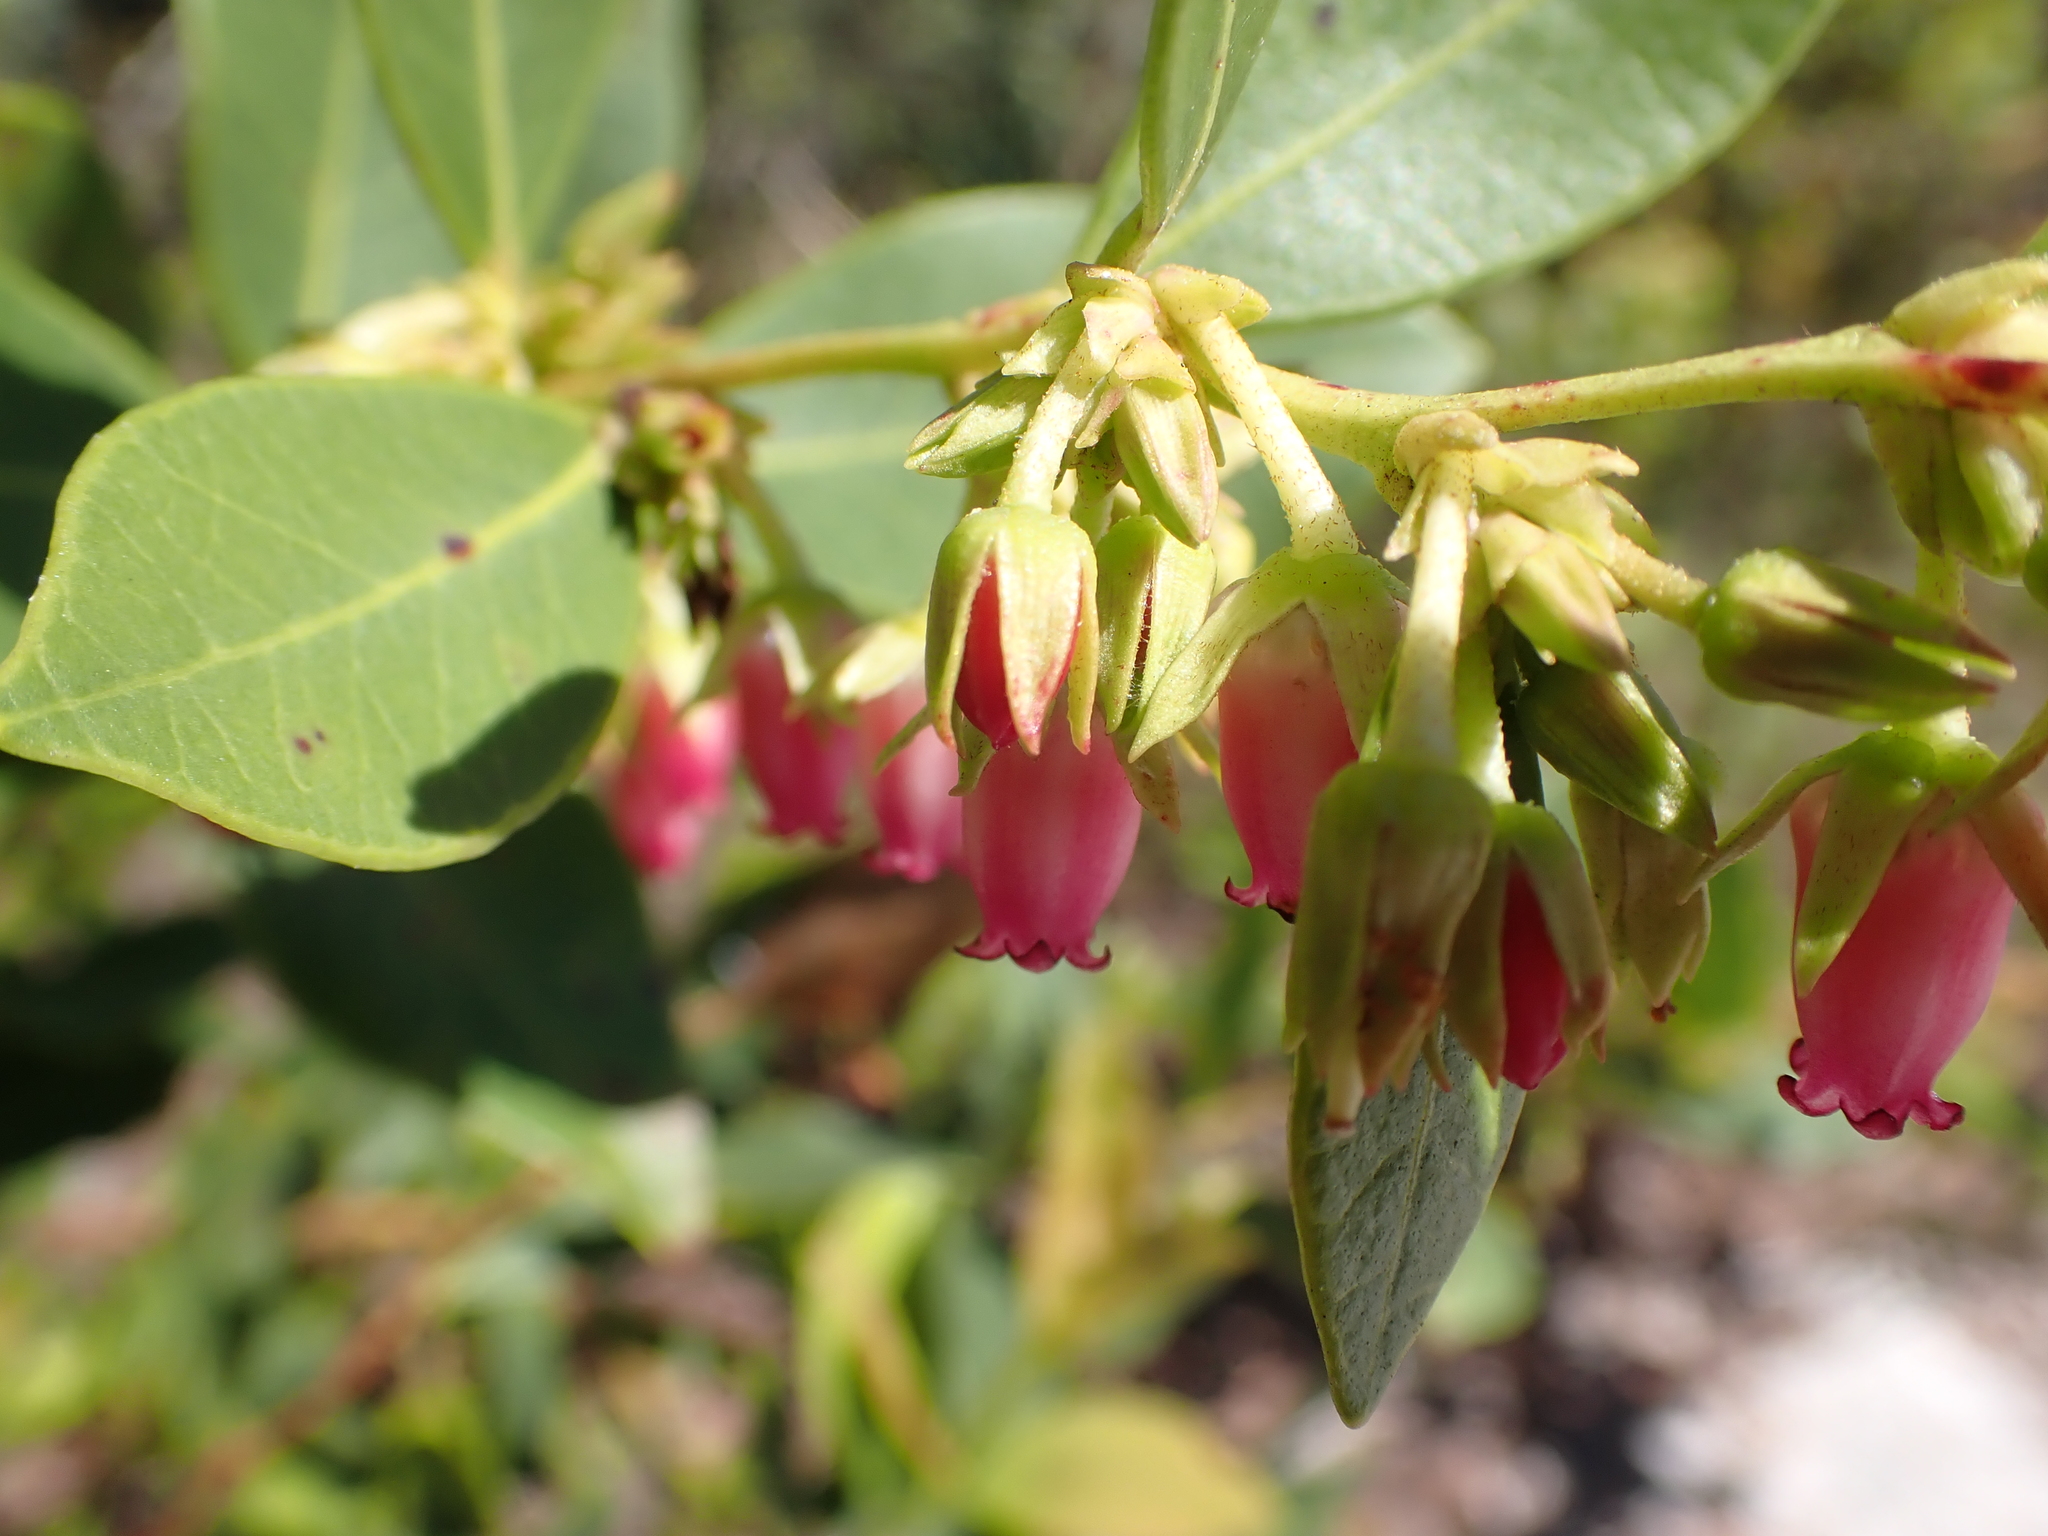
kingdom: Plantae
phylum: Tracheophyta
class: Magnoliopsida
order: Ericales
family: Ericaceae
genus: Lyonia
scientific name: Lyonia lucida
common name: Fetterbush
